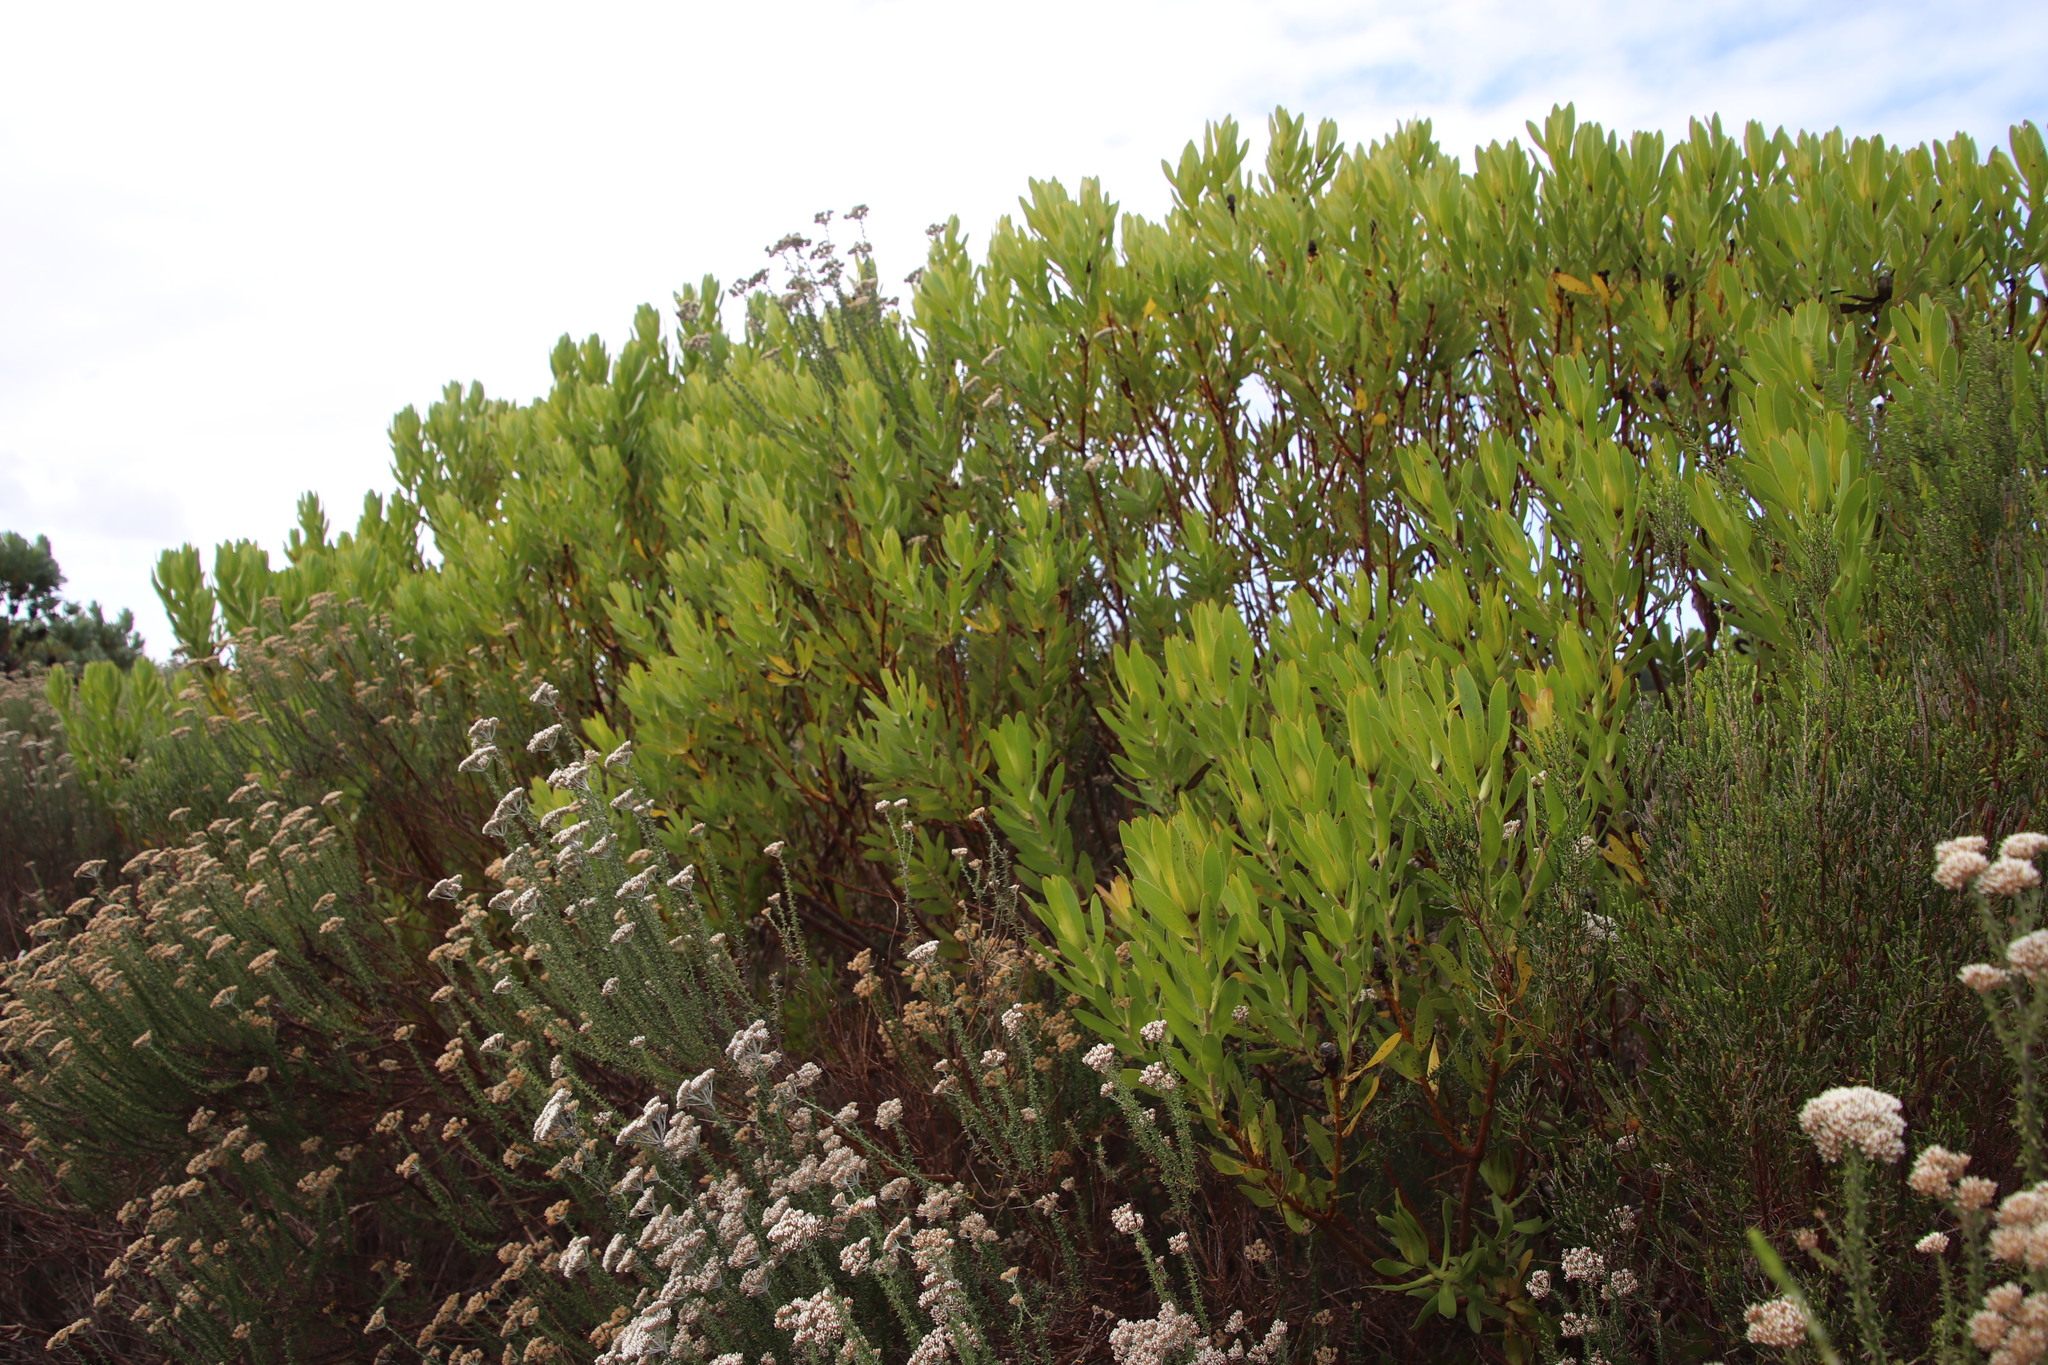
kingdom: Plantae
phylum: Tracheophyta
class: Magnoliopsida
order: Proteales
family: Proteaceae
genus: Leucadendron
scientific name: Leucadendron laureolum
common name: Golden sunshinebush
